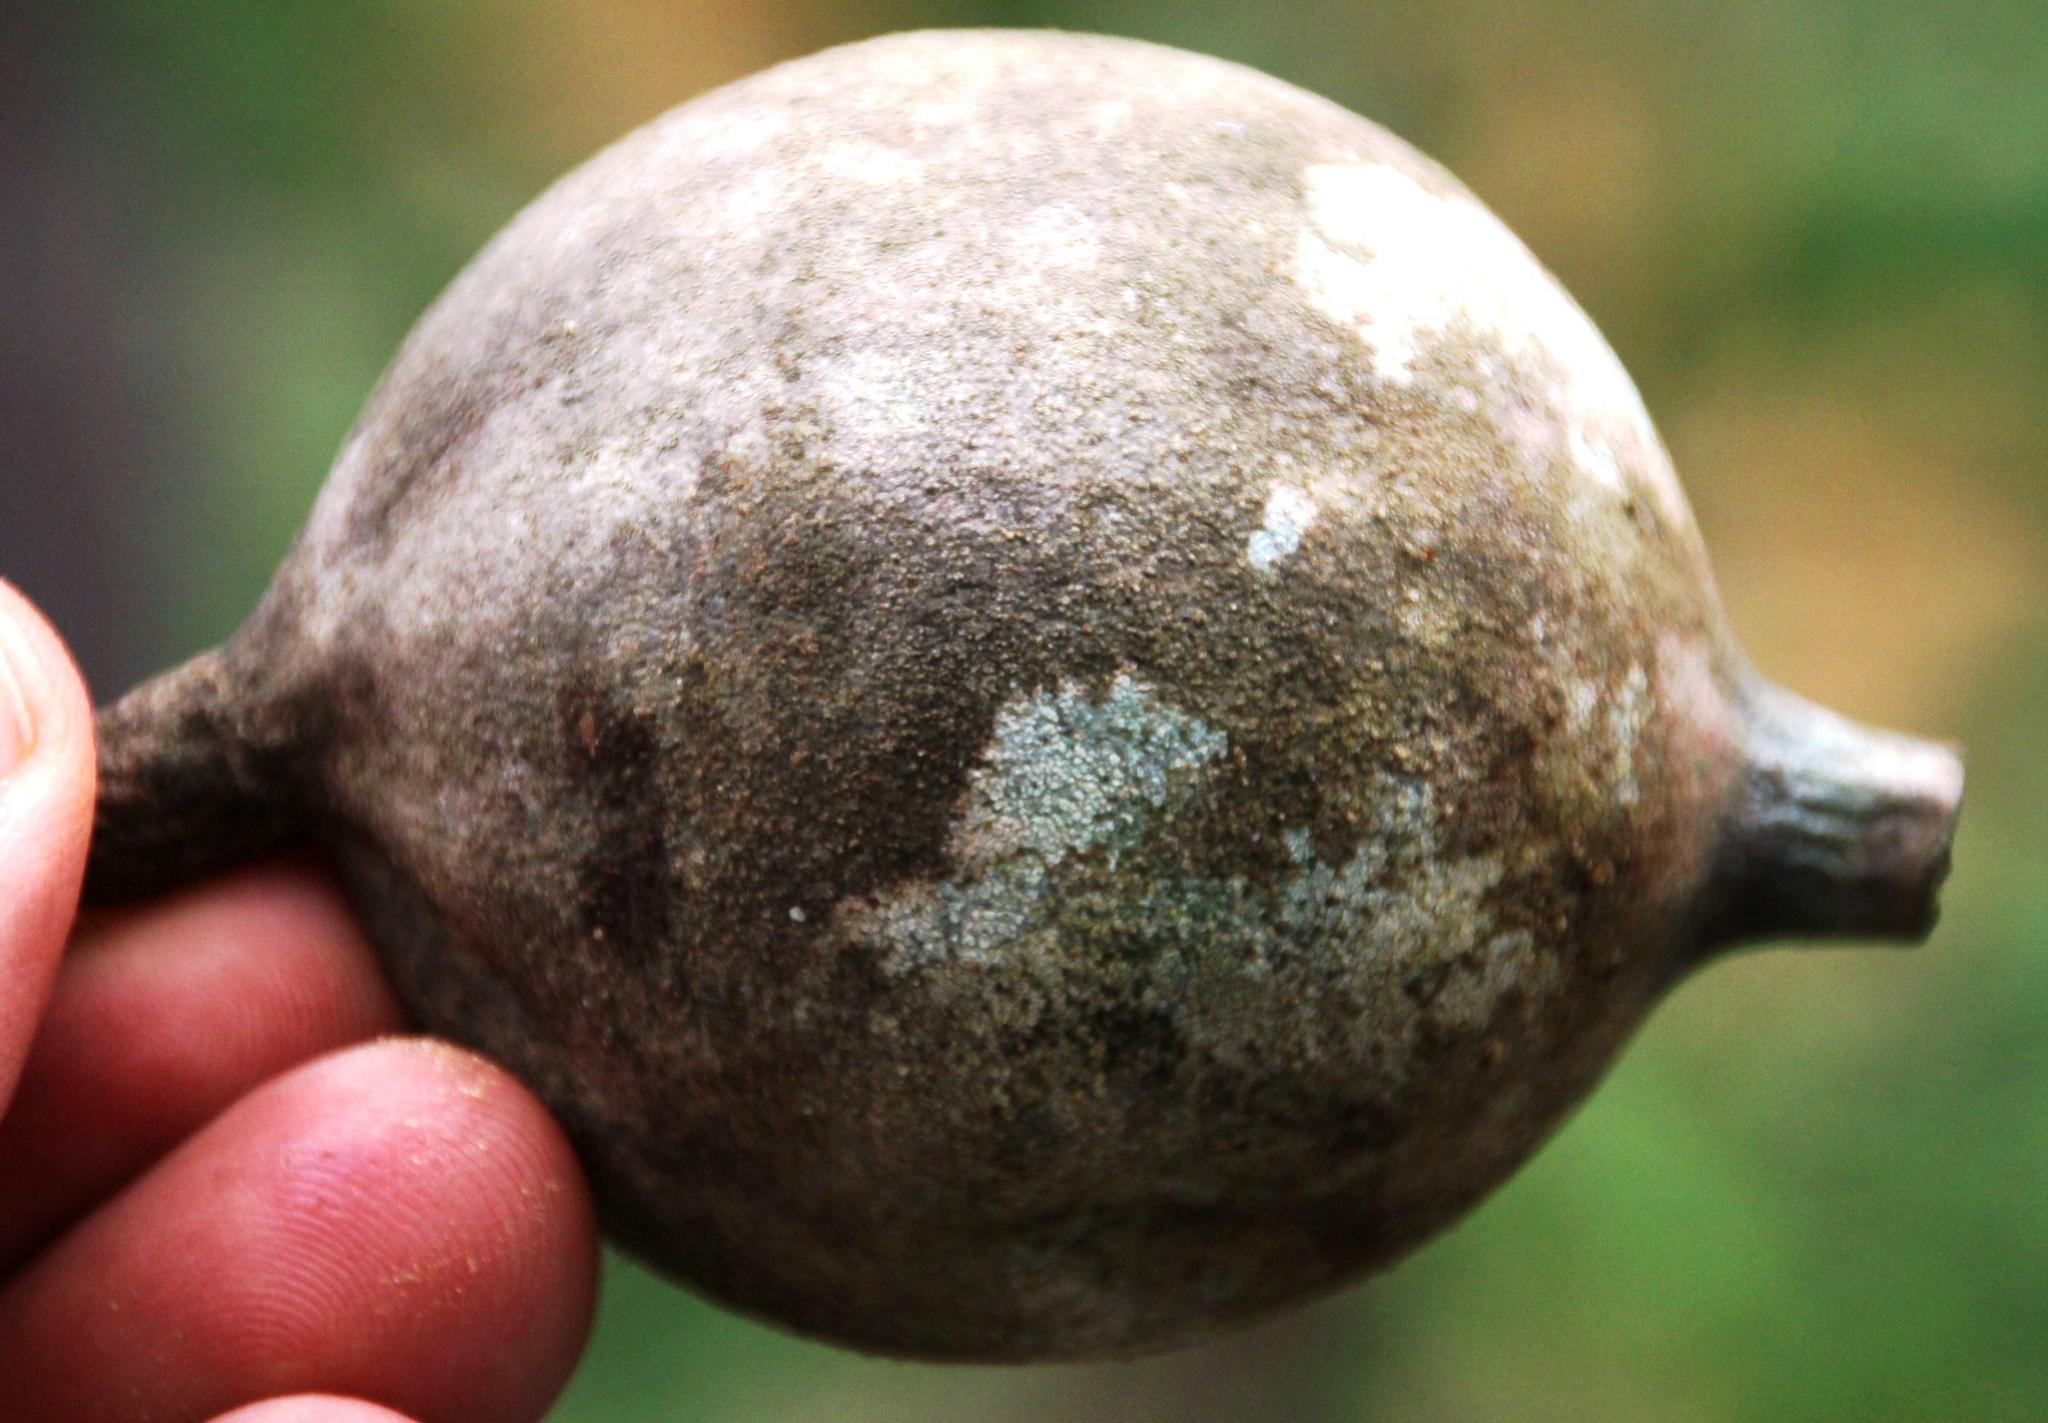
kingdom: Plantae
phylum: Tracheophyta
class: Magnoliopsida
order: Gentianales
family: Rubiaceae
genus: Genipa
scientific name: Genipa americana
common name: Genipap
